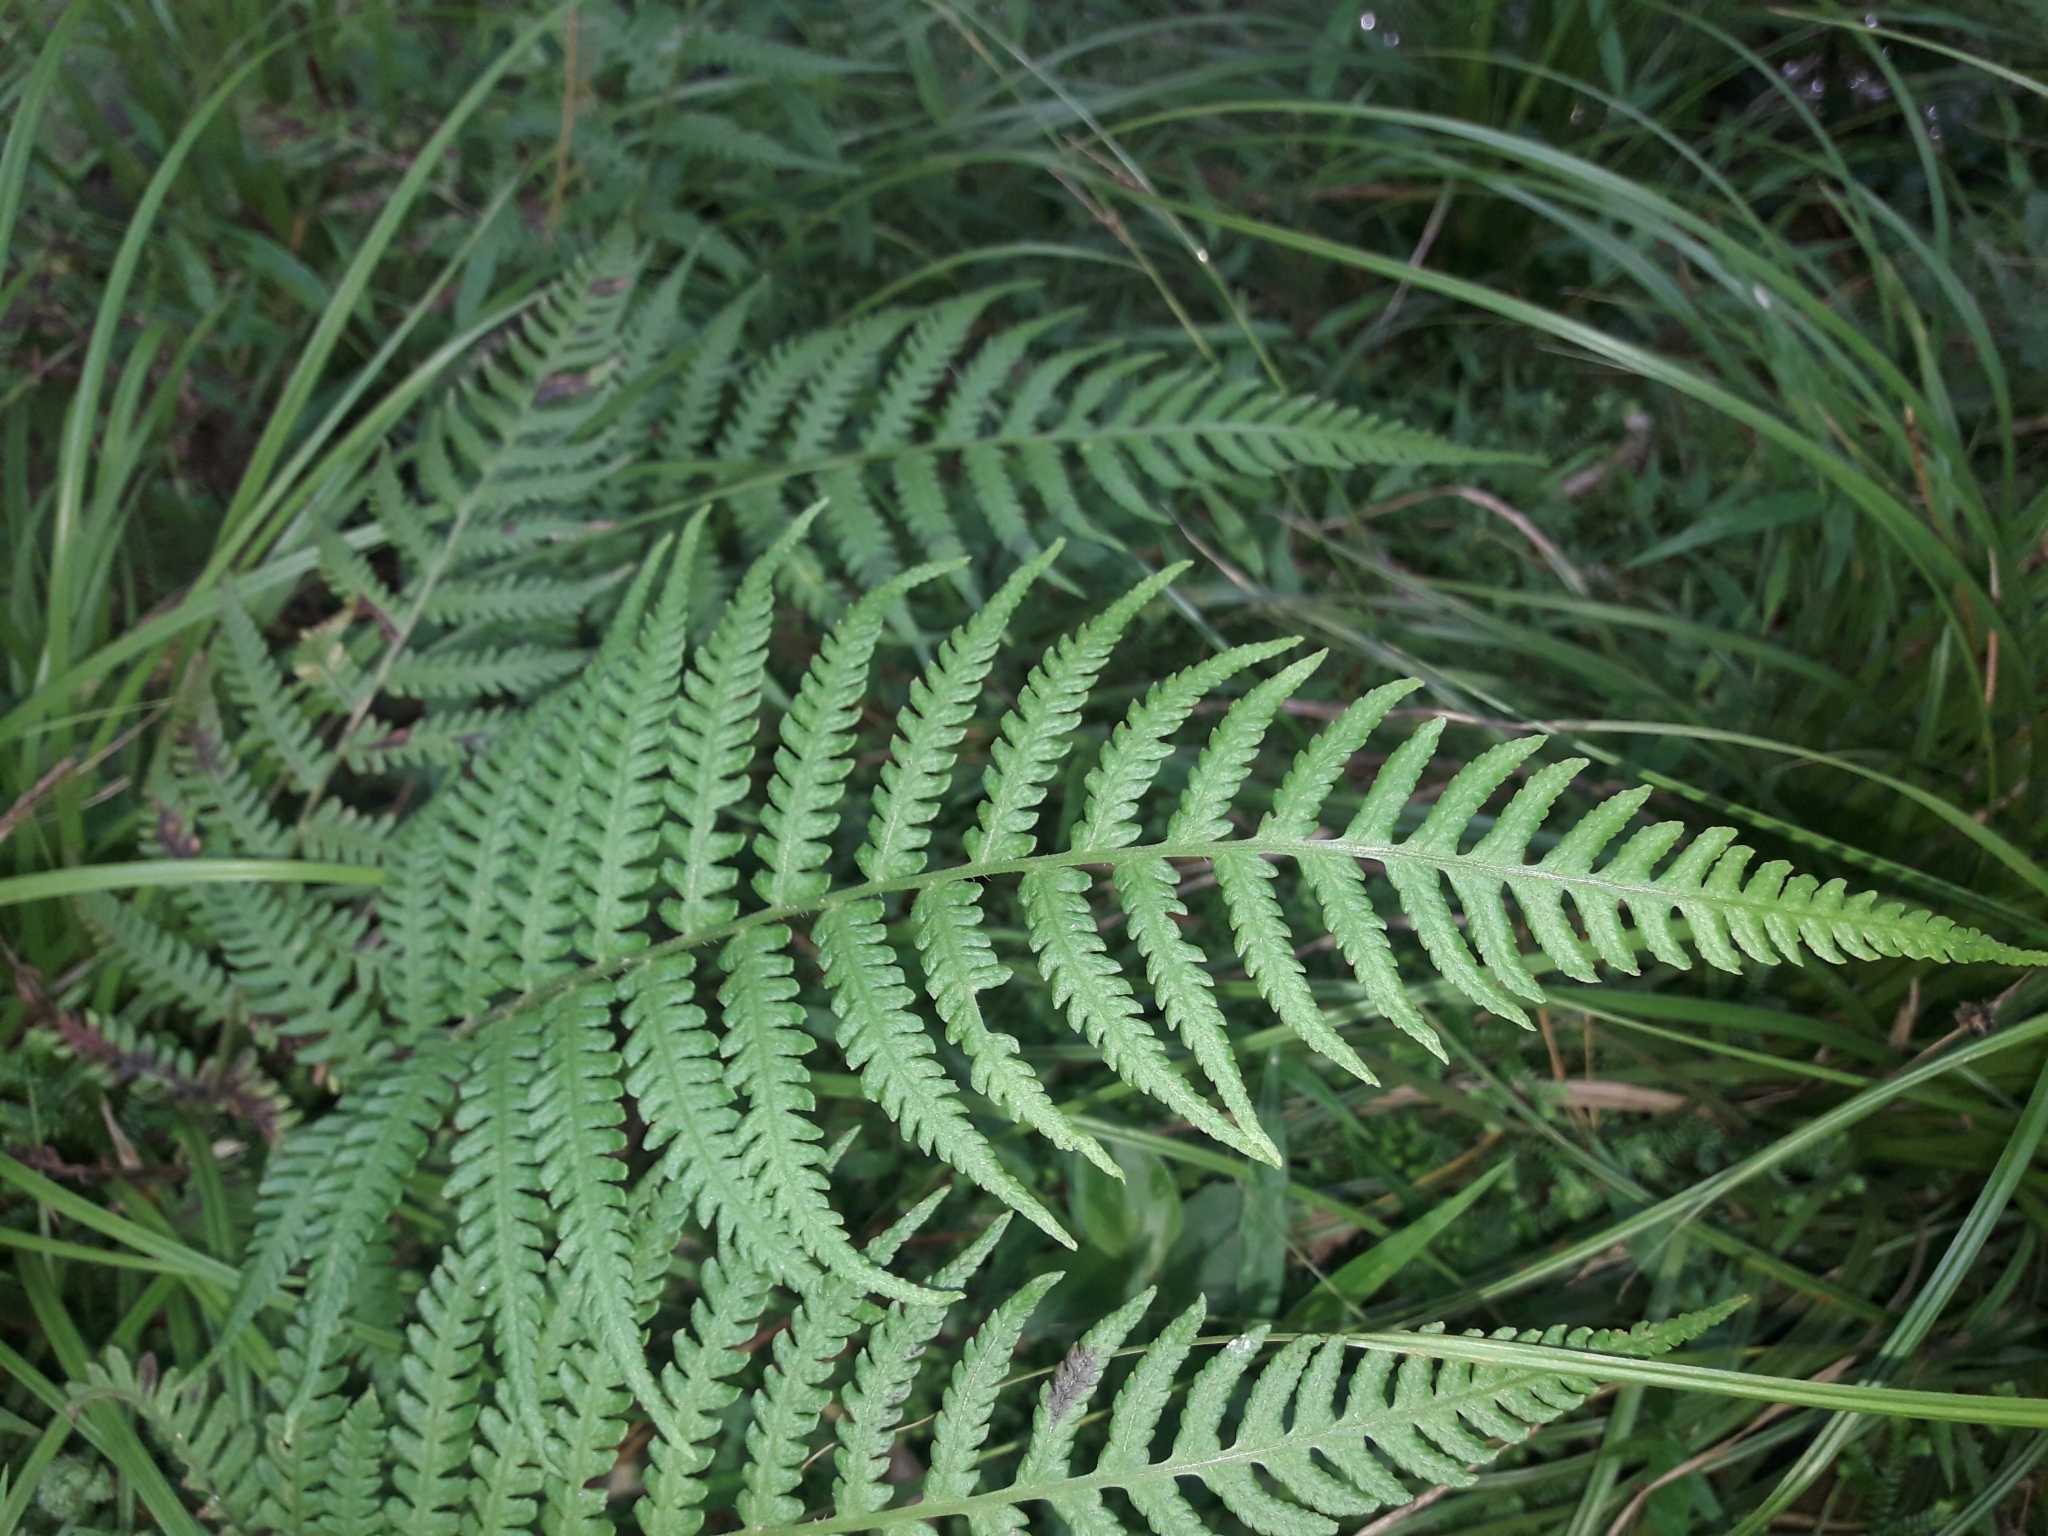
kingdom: Plantae
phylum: Tracheophyta
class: Polypodiopsida
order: Polypodiales
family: Athyriaceae
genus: Deparia
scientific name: Deparia petersenii
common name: Japanese false spleenwort
